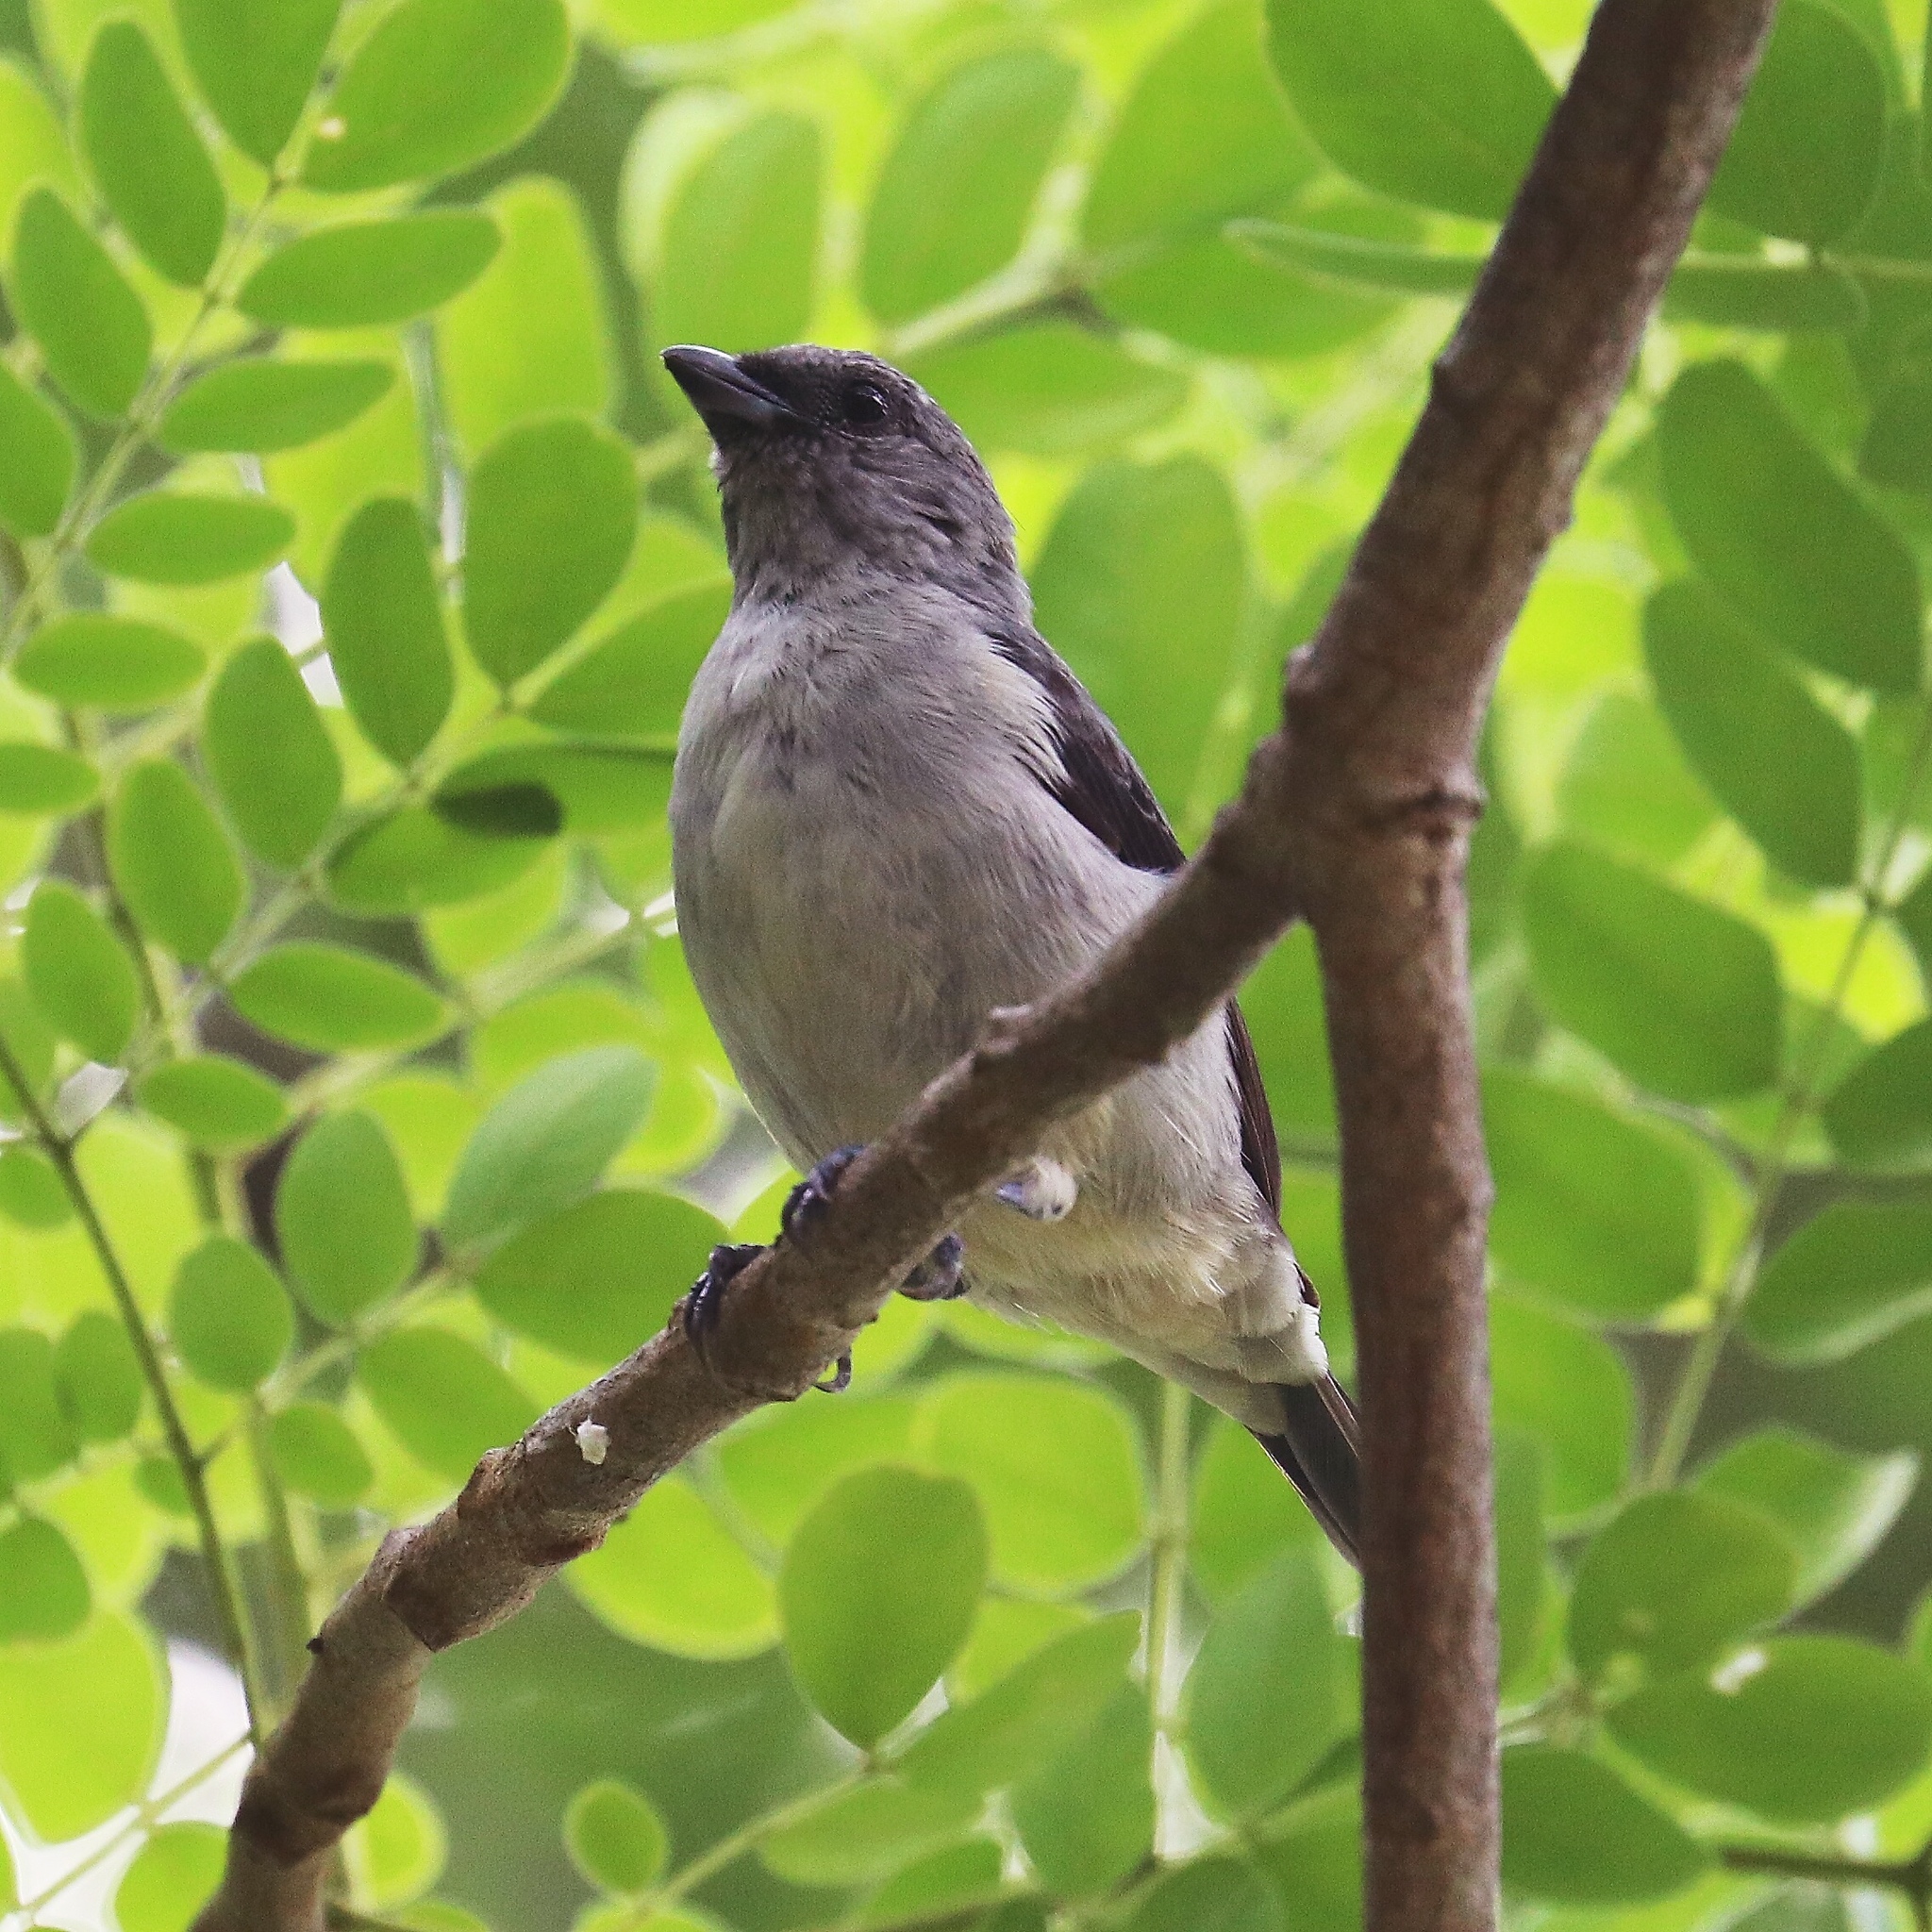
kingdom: Animalia
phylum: Chordata
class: Aves
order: Passeriformes
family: Thraupidae
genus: Tangara
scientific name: Tangara inornata
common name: Plain-colored tanager
